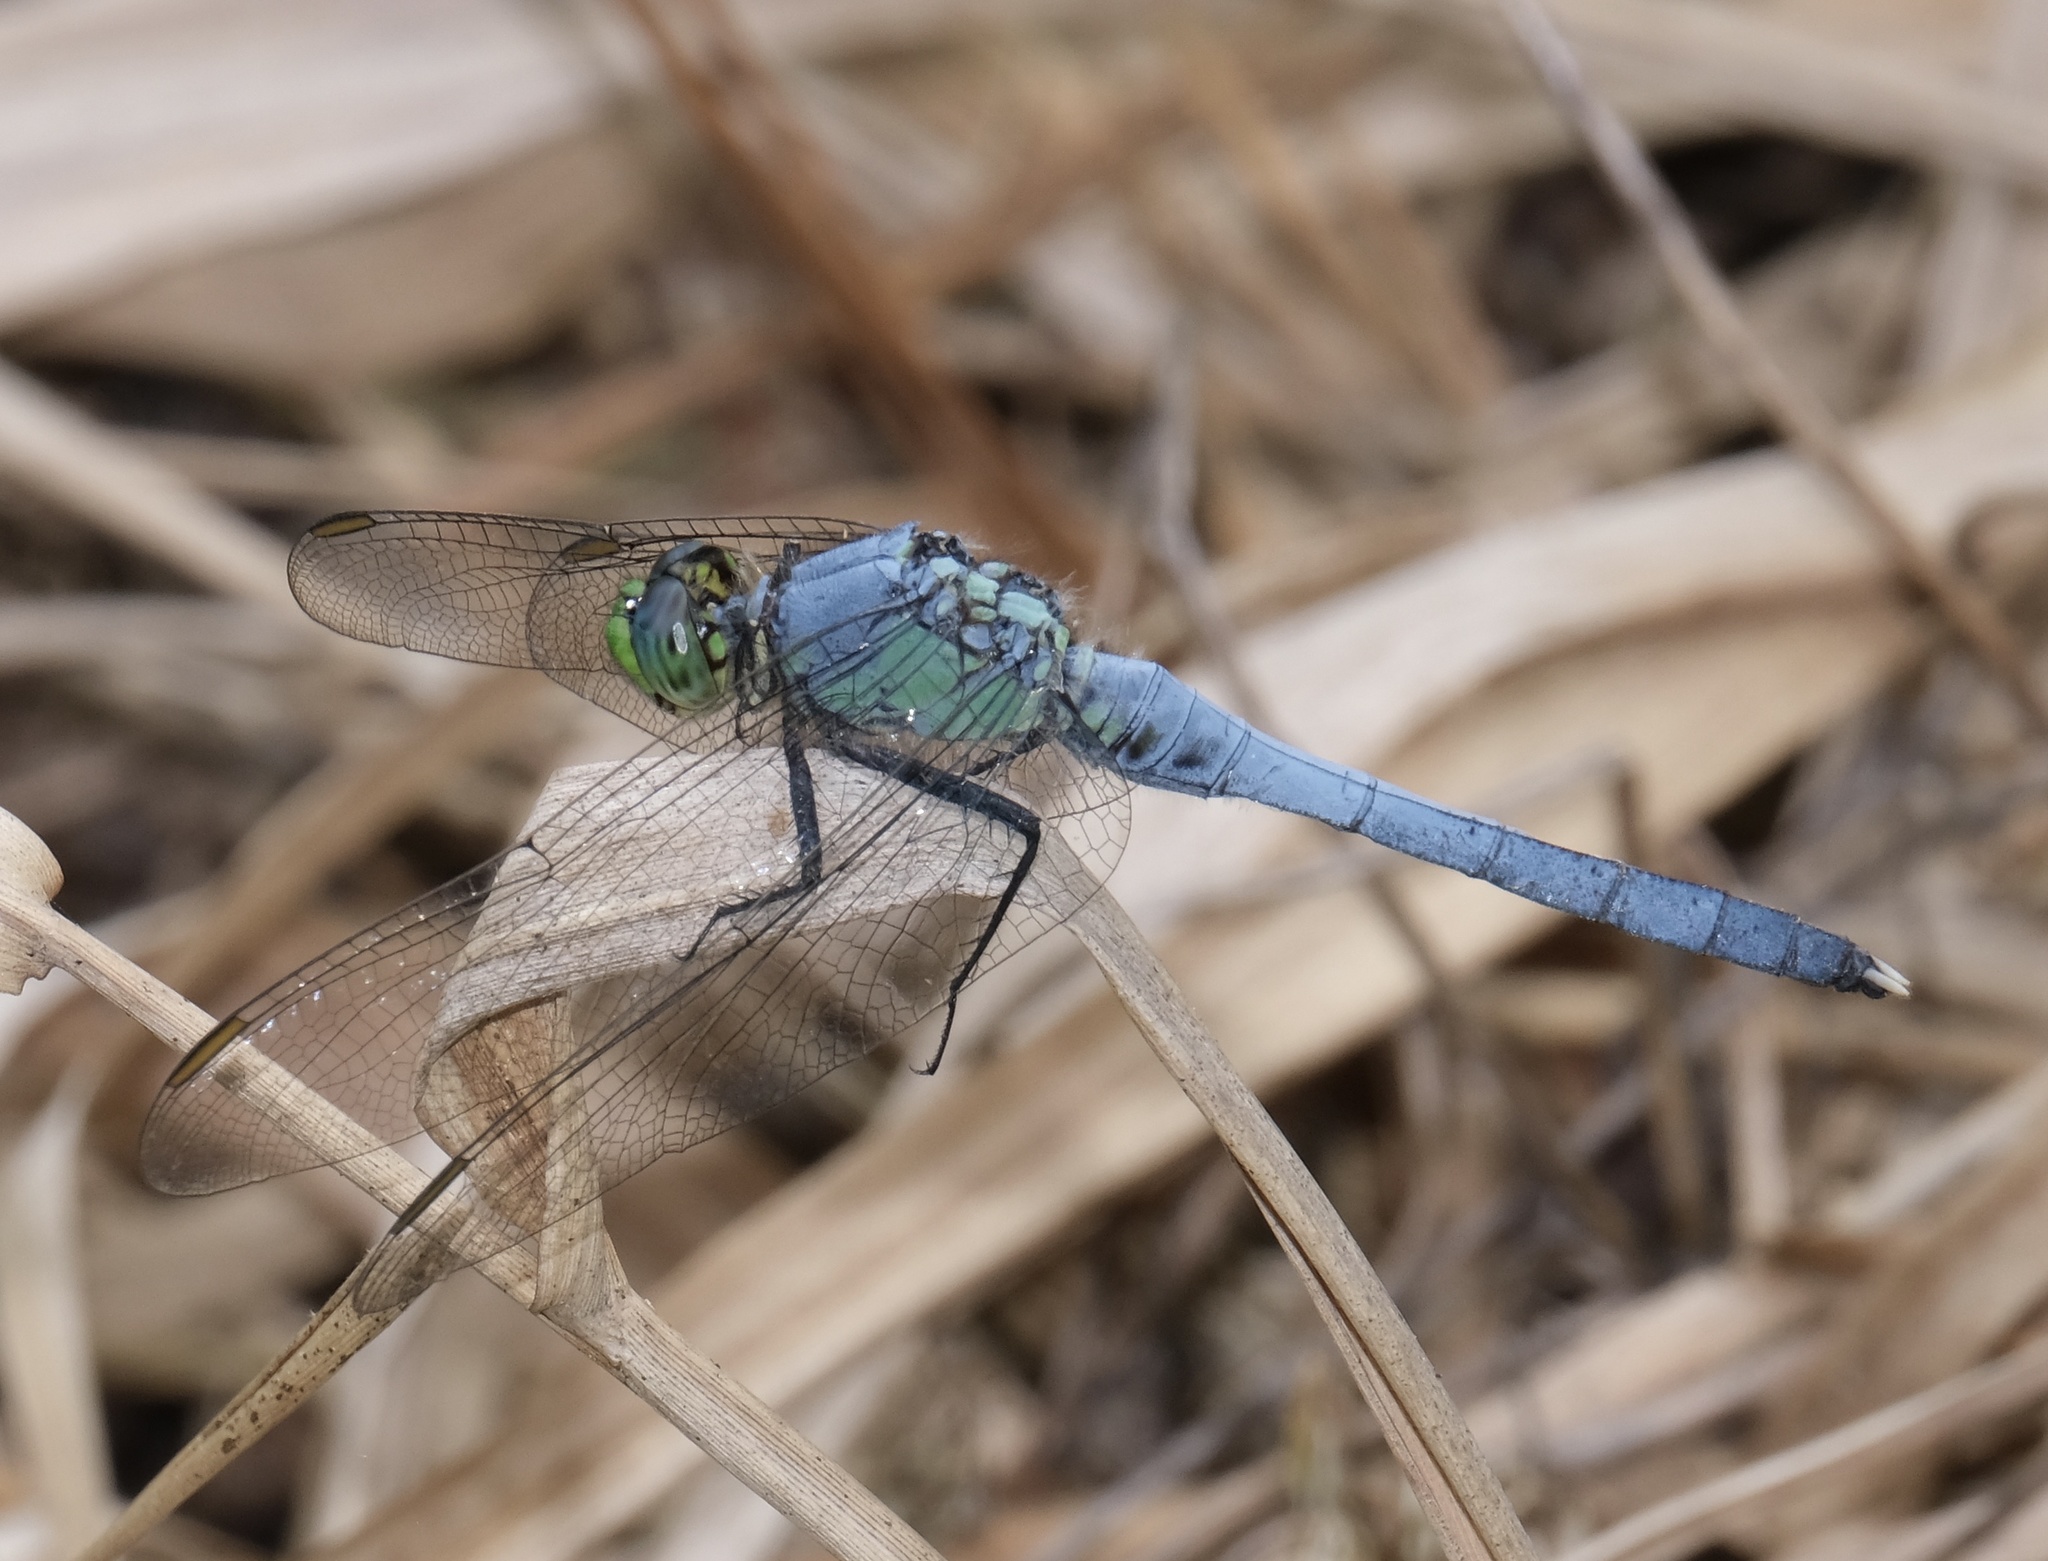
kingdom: Animalia
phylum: Arthropoda
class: Insecta
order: Odonata
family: Libellulidae
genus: Erythemis
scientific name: Erythemis simplicicollis
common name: Eastern pondhawk
